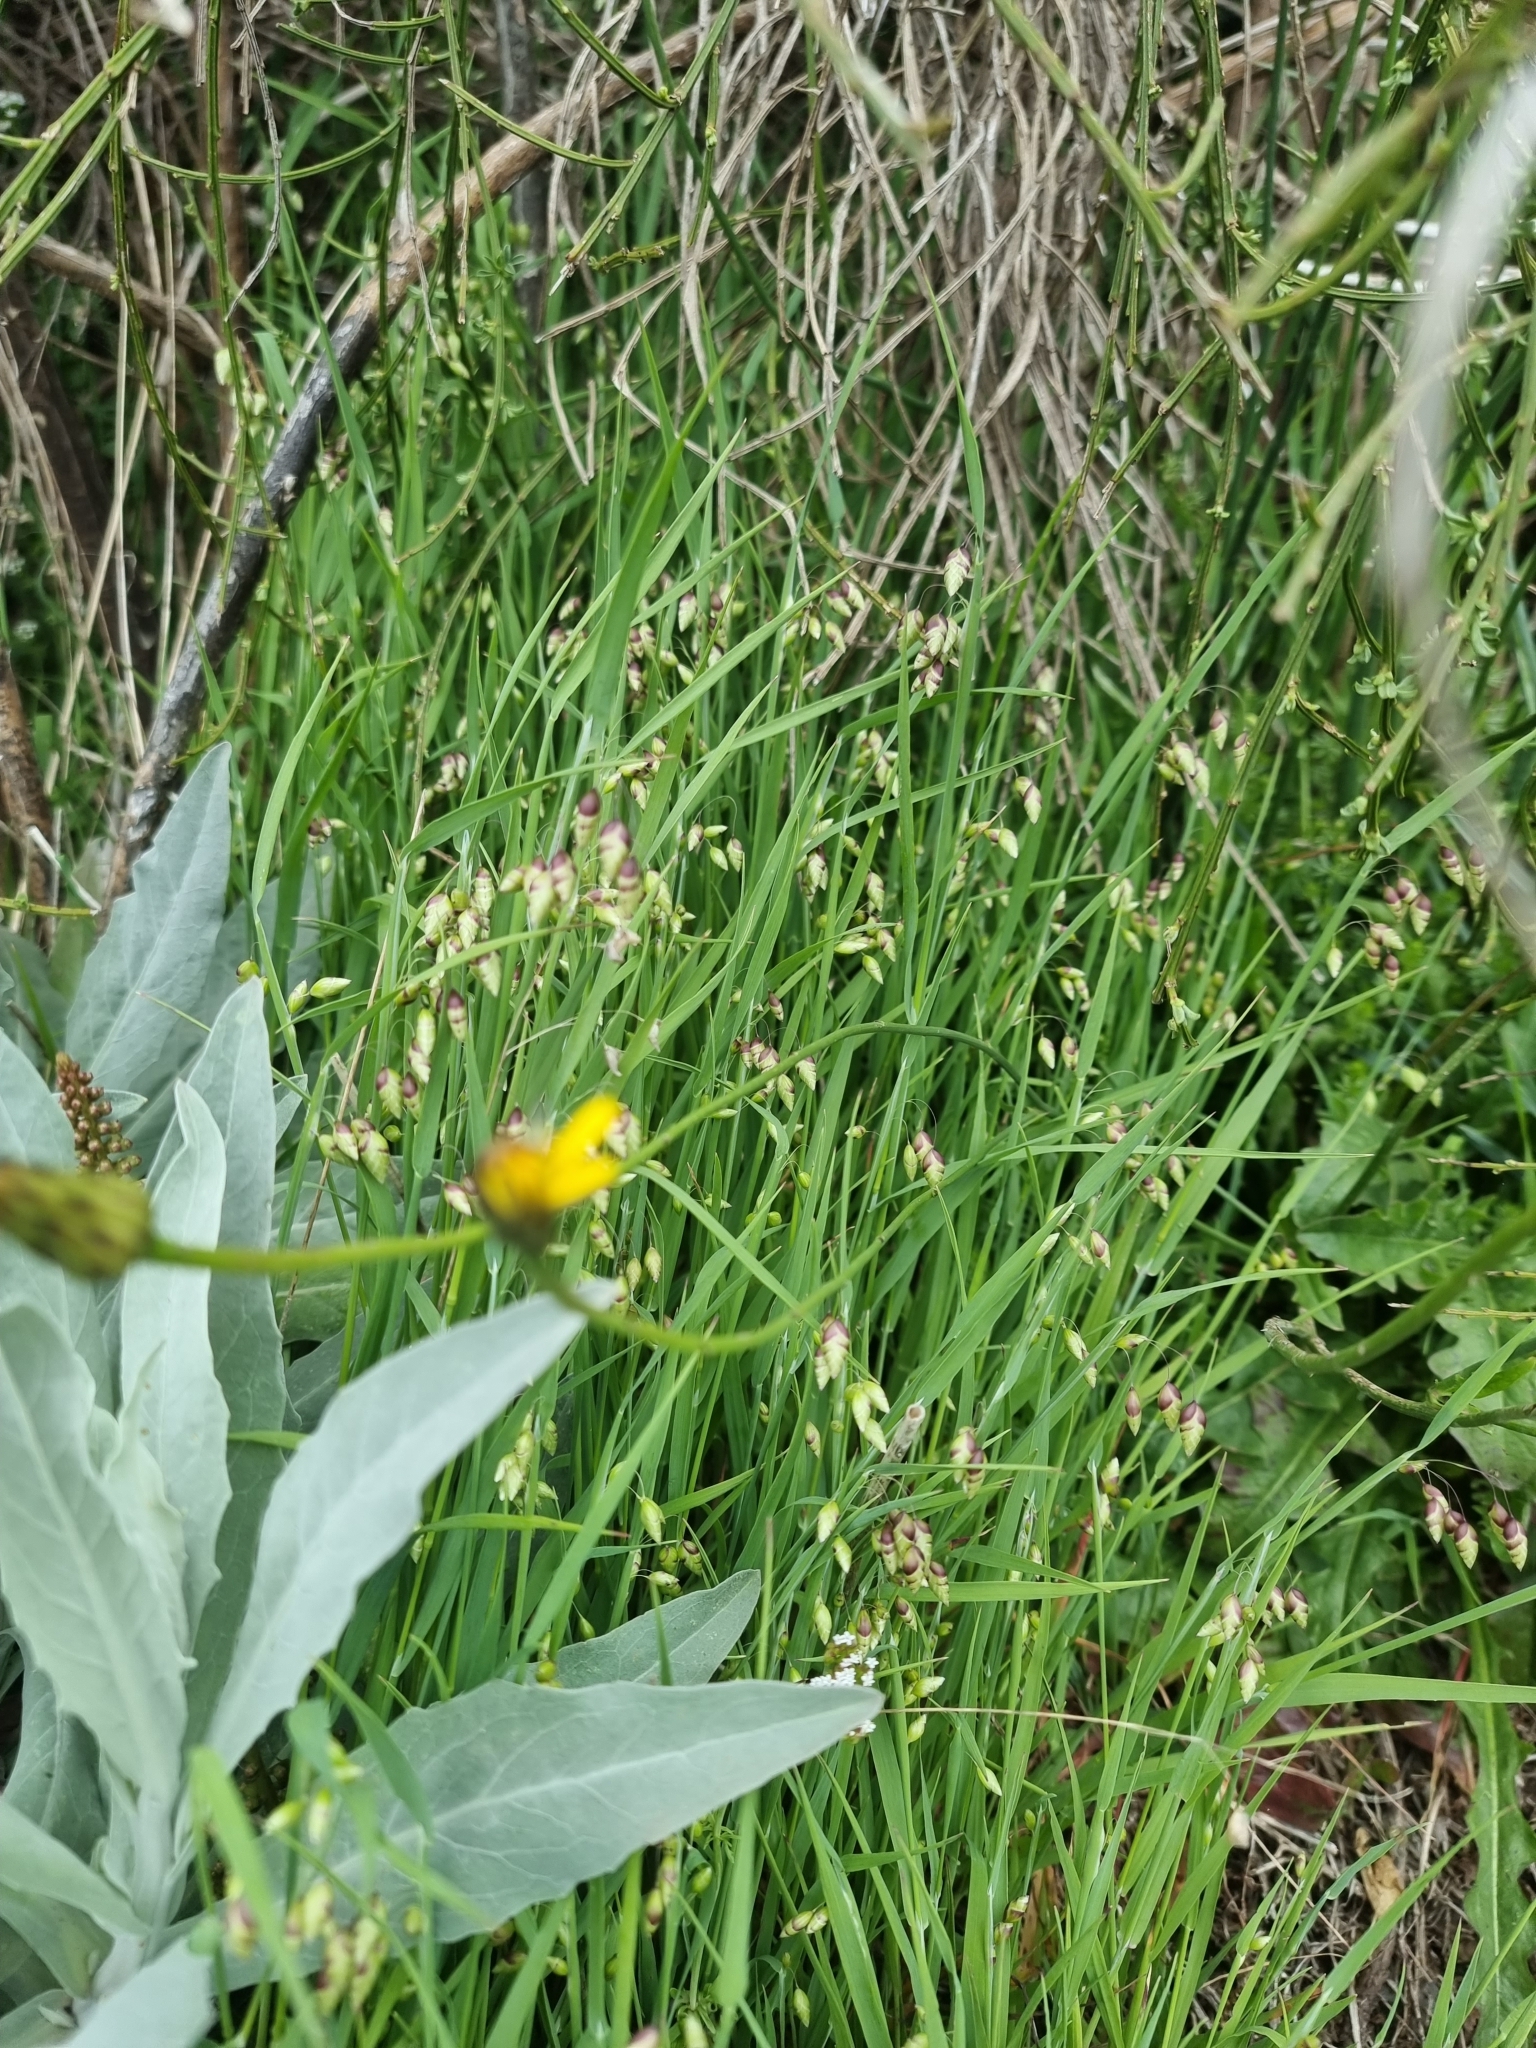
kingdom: Plantae
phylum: Tracheophyta
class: Liliopsida
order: Poales
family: Poaceae
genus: Briza
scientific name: Briza maxima
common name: Big quakinggrass
